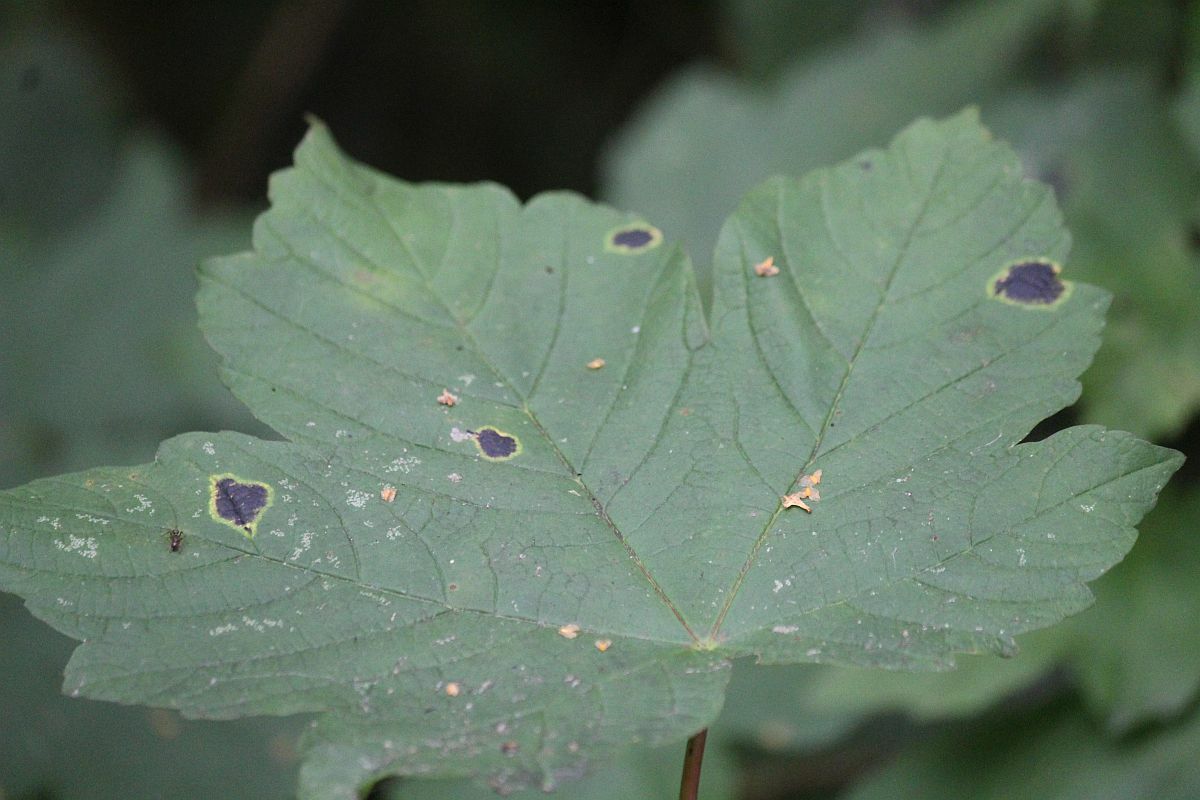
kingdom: Fungi
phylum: Ascomycota
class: Leotiomycetes
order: Rhytismatales
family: Rhytismataceae
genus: Rhytisma
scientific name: Rhytisma acerinum
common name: European tar spot
